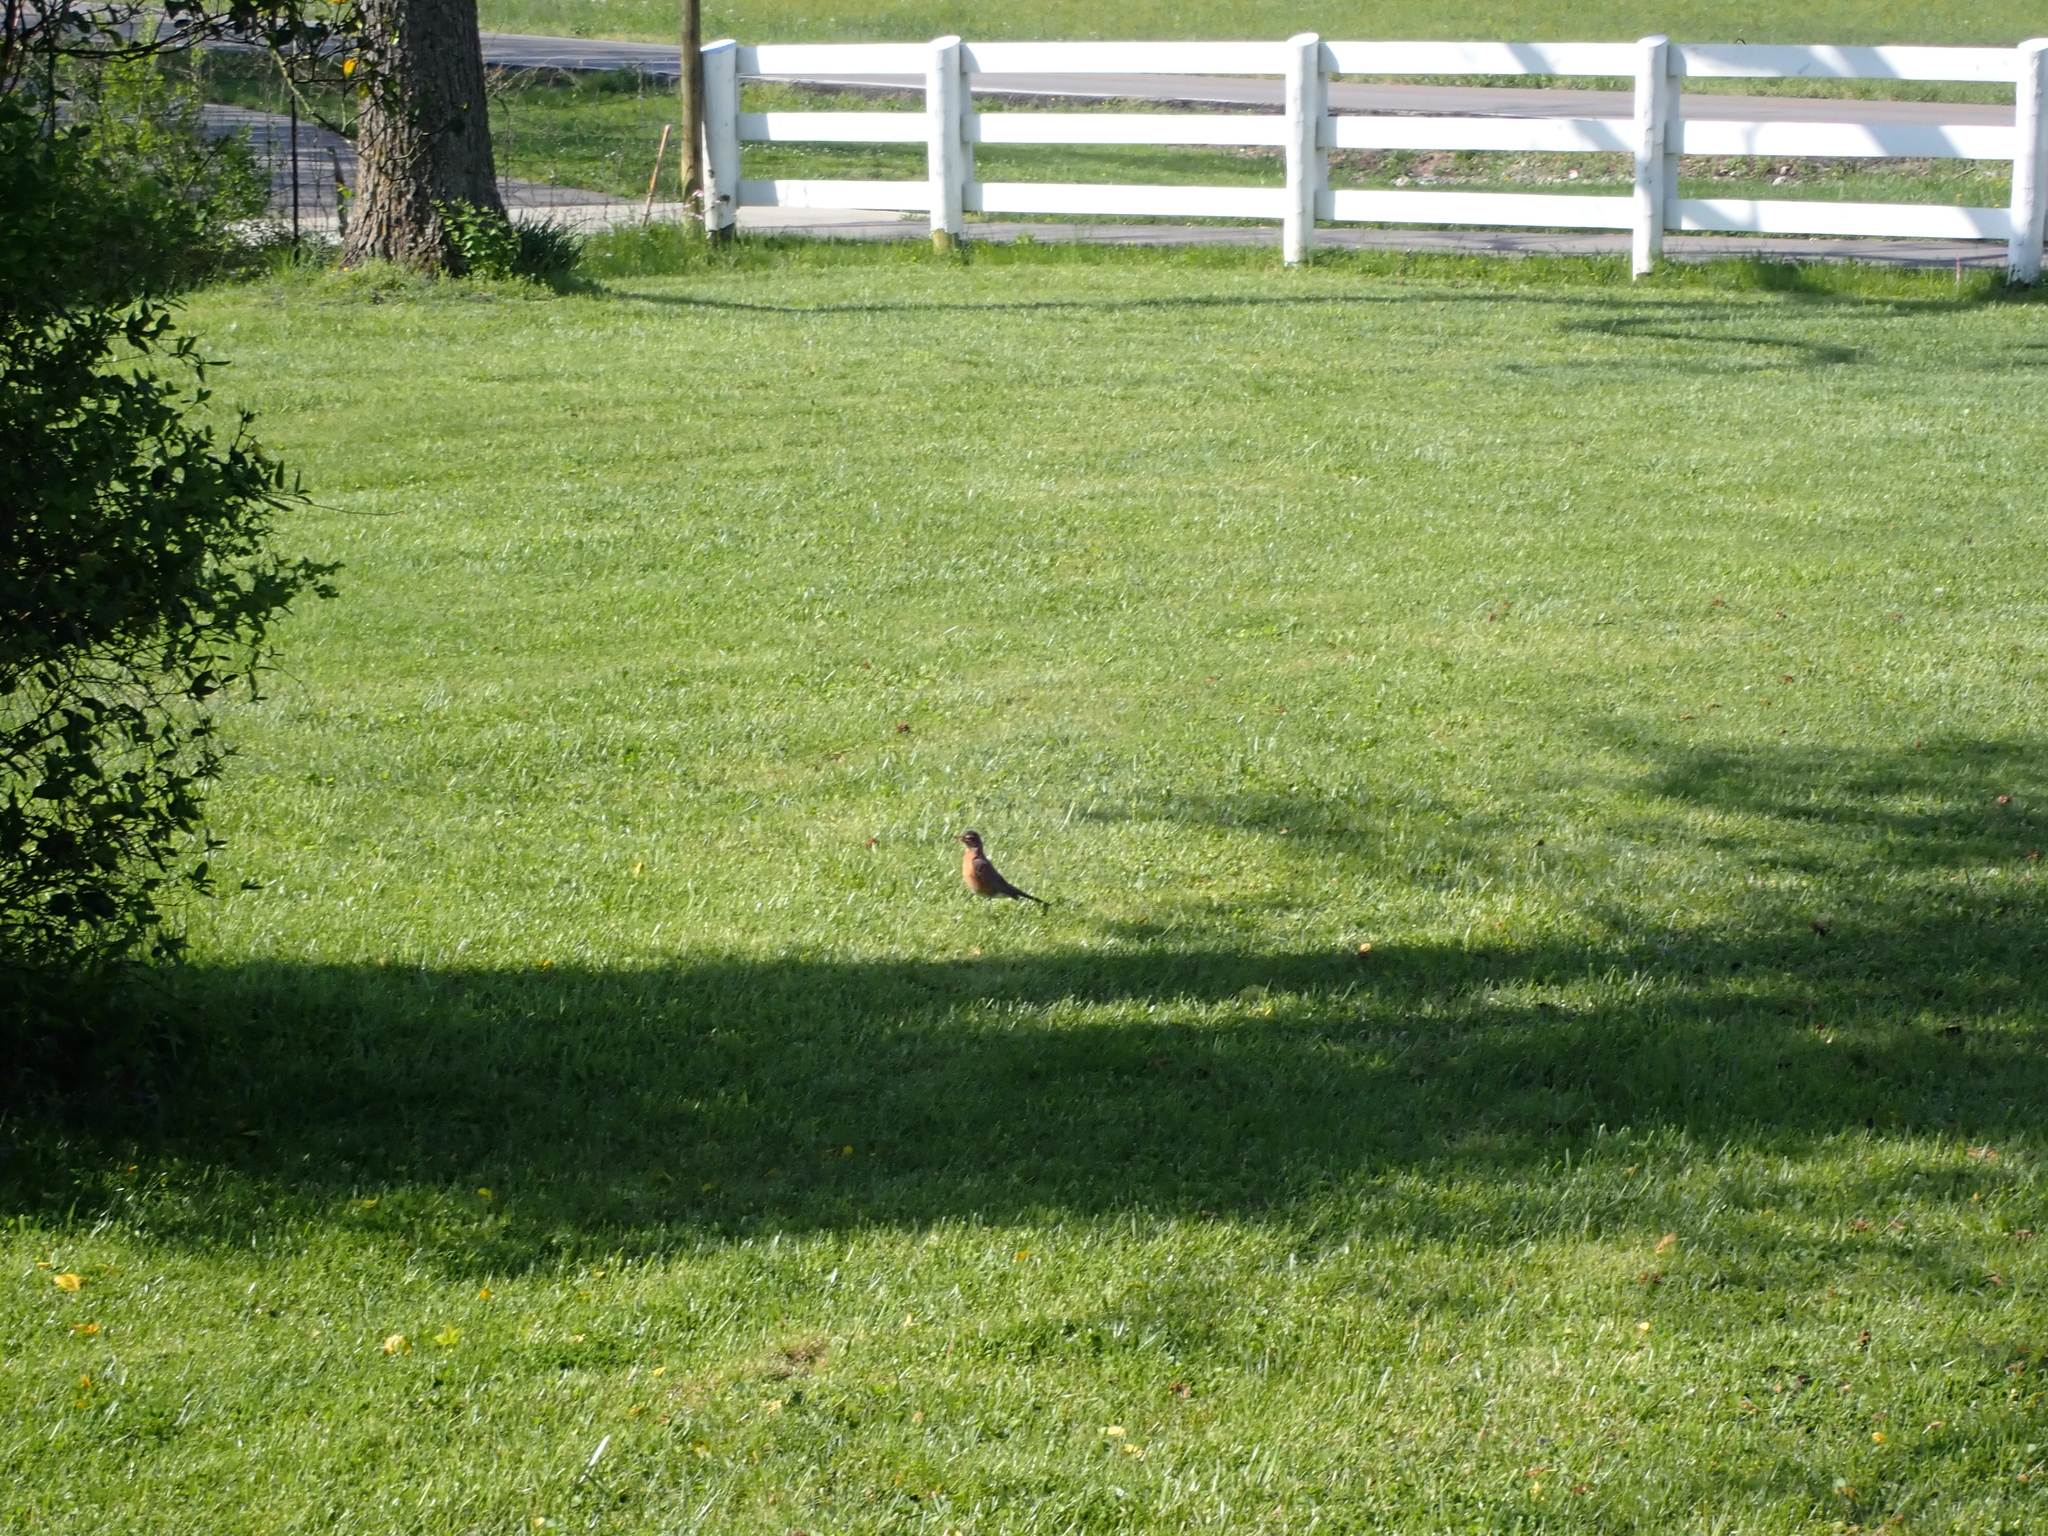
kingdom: Animalia
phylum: Chordata
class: Aves
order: Passeriformes
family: Turdidae
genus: Turdus
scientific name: Turdus migratorius
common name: American robin
